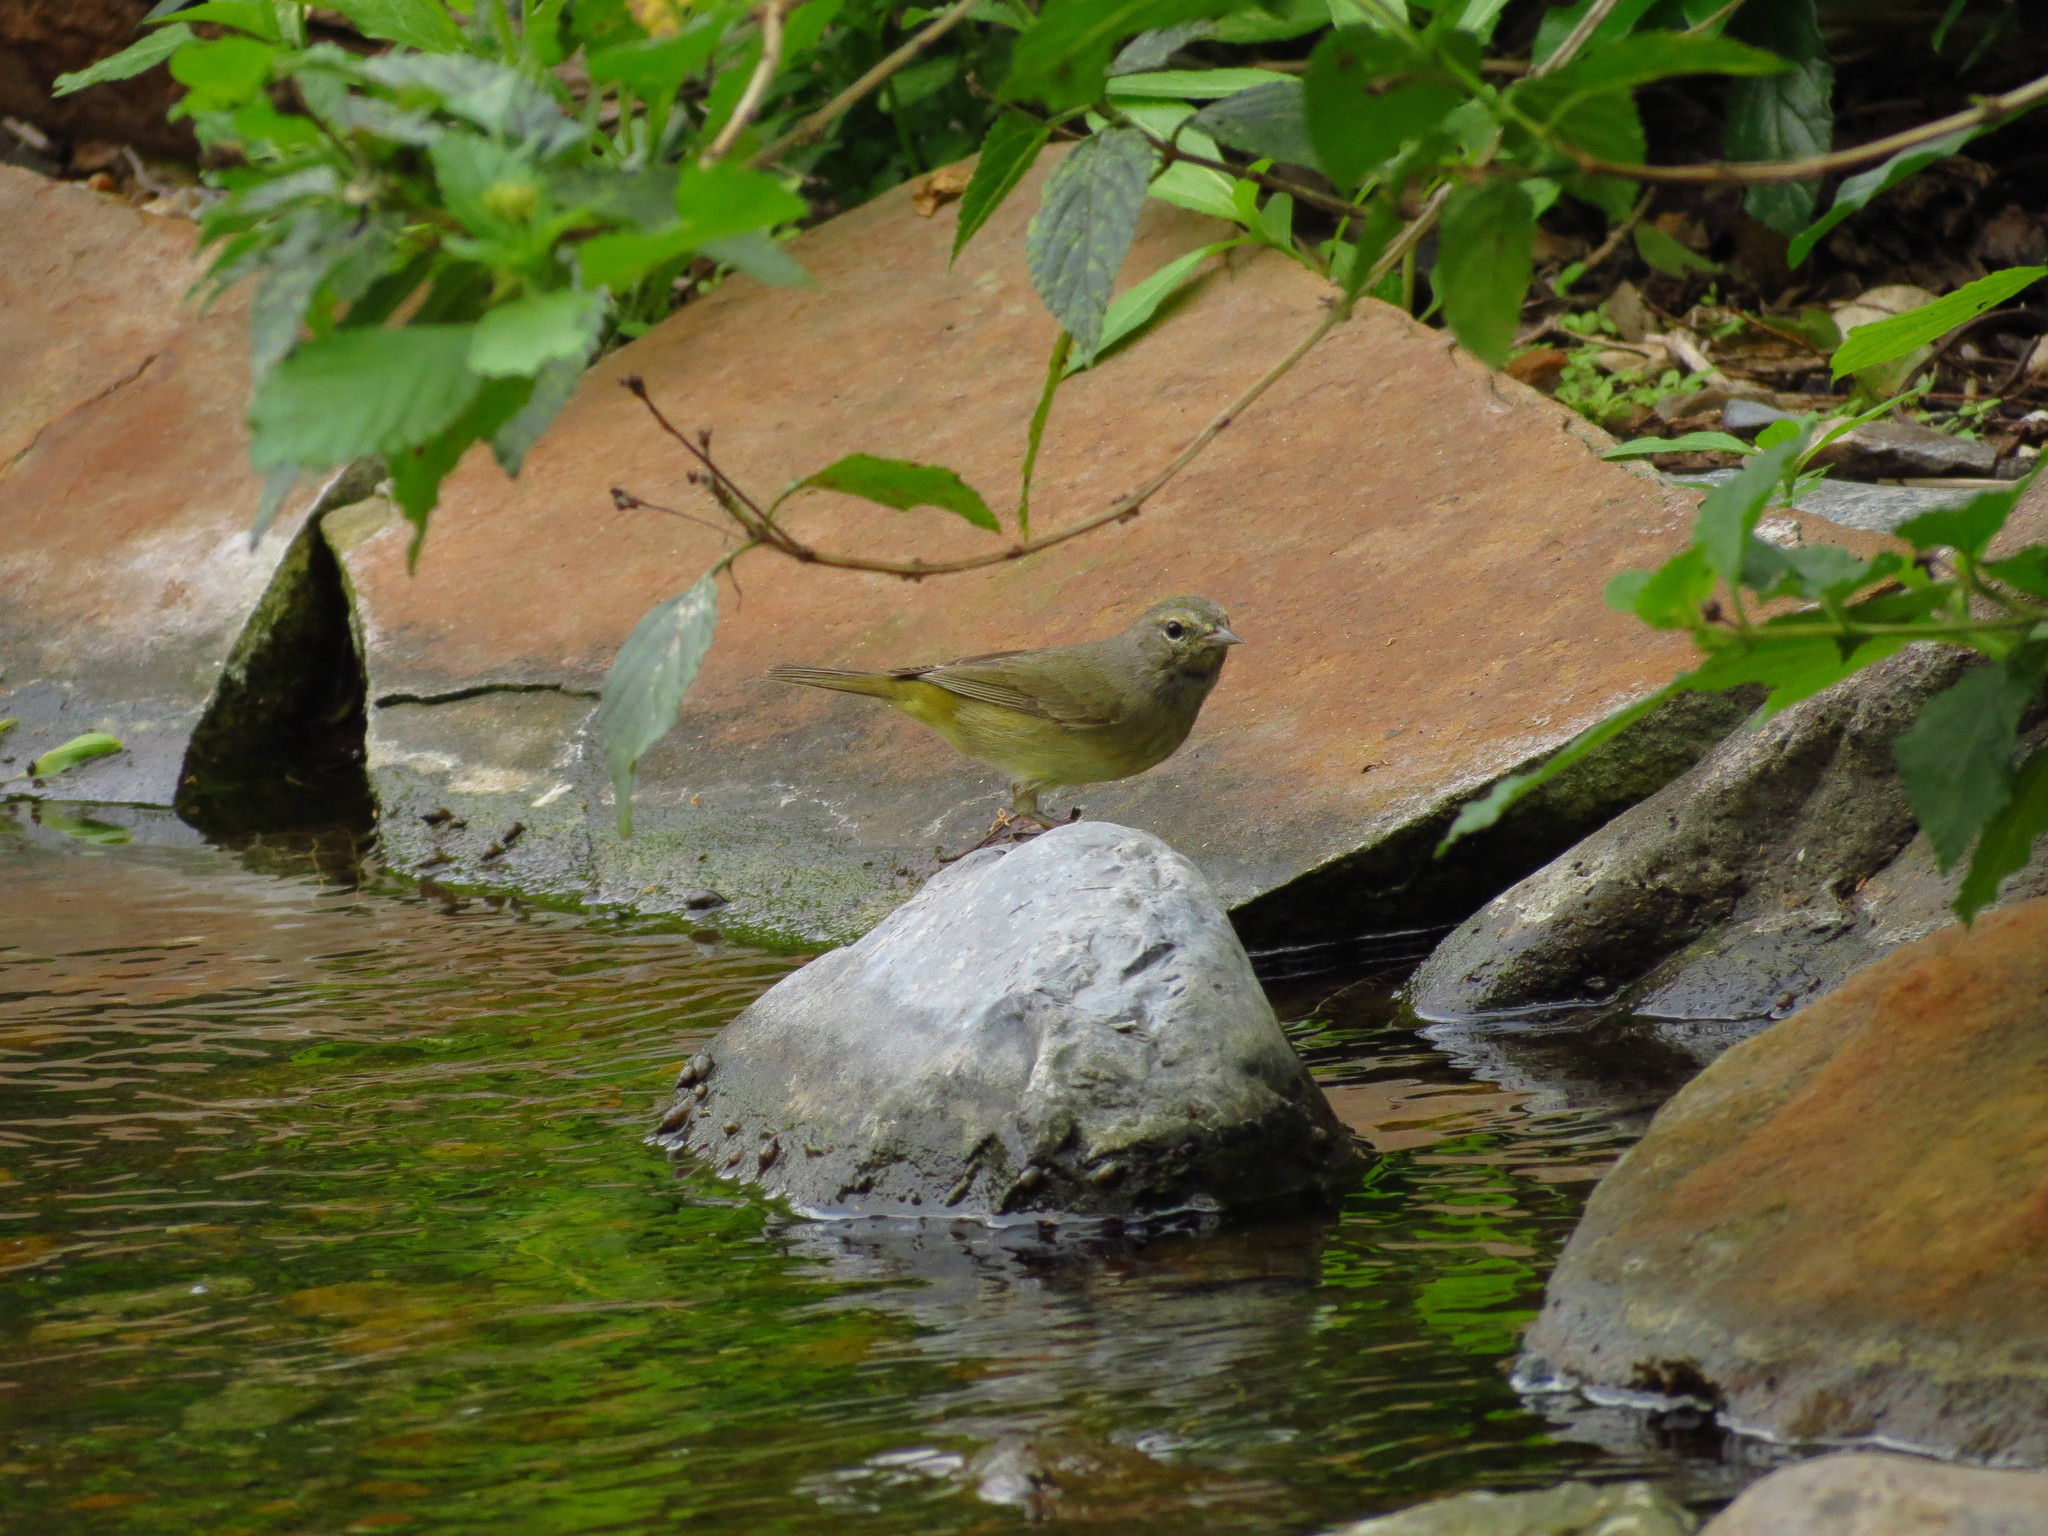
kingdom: Animalia
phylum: Chordata
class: Aves
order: Passeriformes
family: Parulidae
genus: Leiothlypis
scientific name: Leiothlypis celata
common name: Orange-crowned warbler
